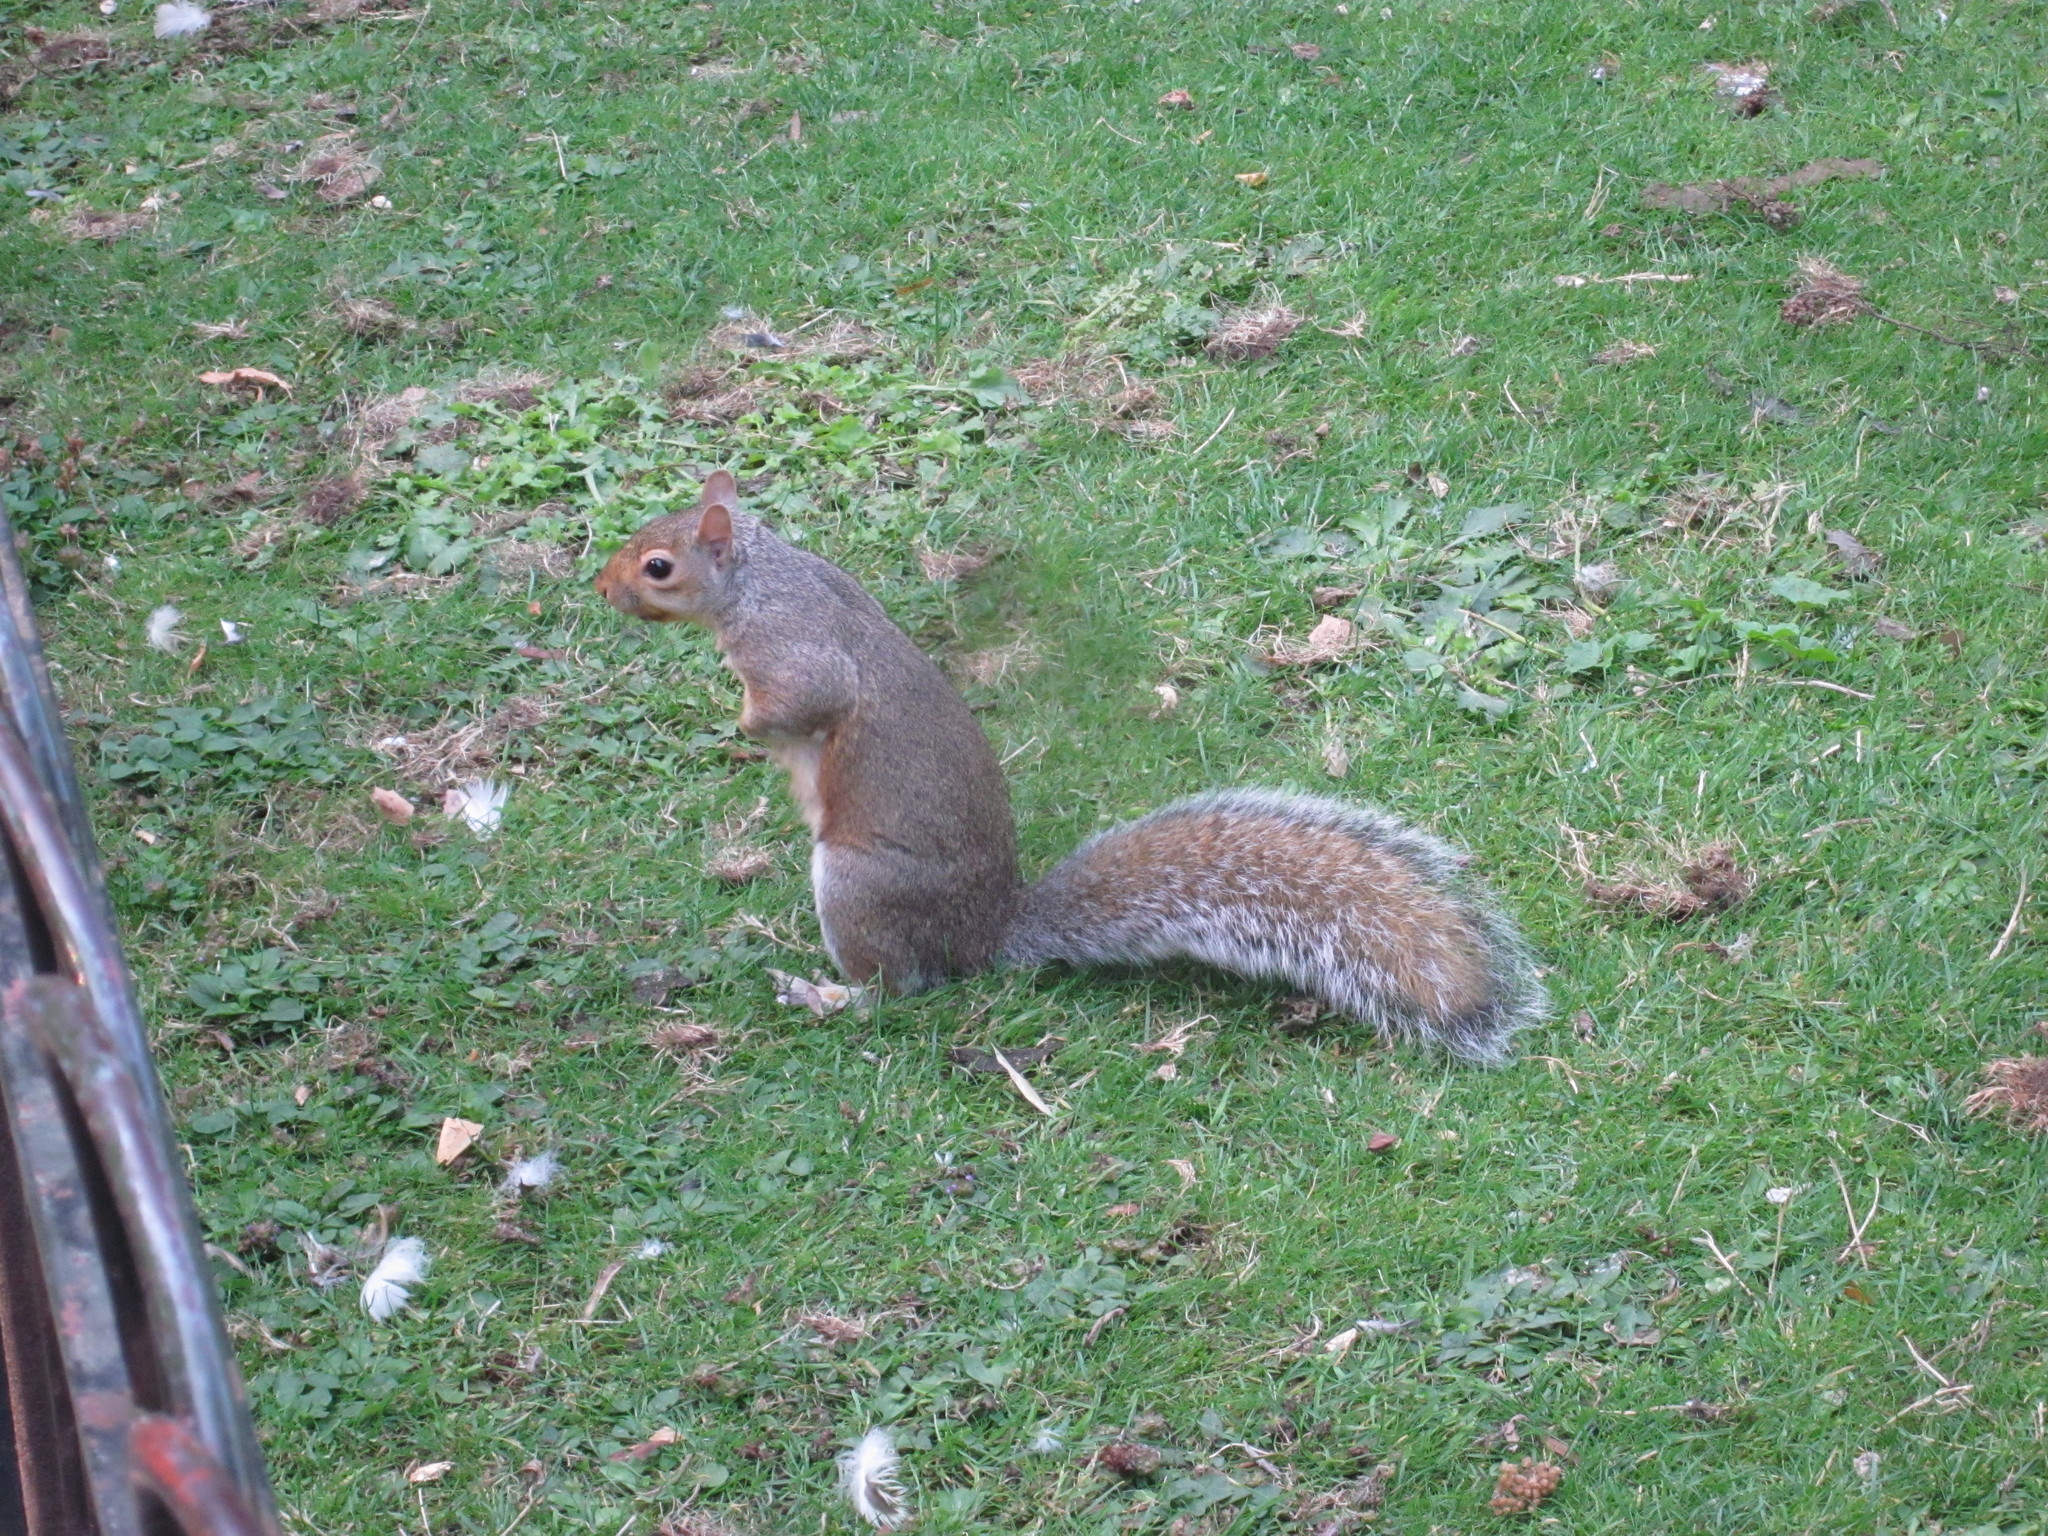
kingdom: Animalia
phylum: Chordata
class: Mammalia
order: Rodentia
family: Sciuridae
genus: Sciurus
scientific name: Sciurus carolinensis
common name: Eastern gray squirrel
